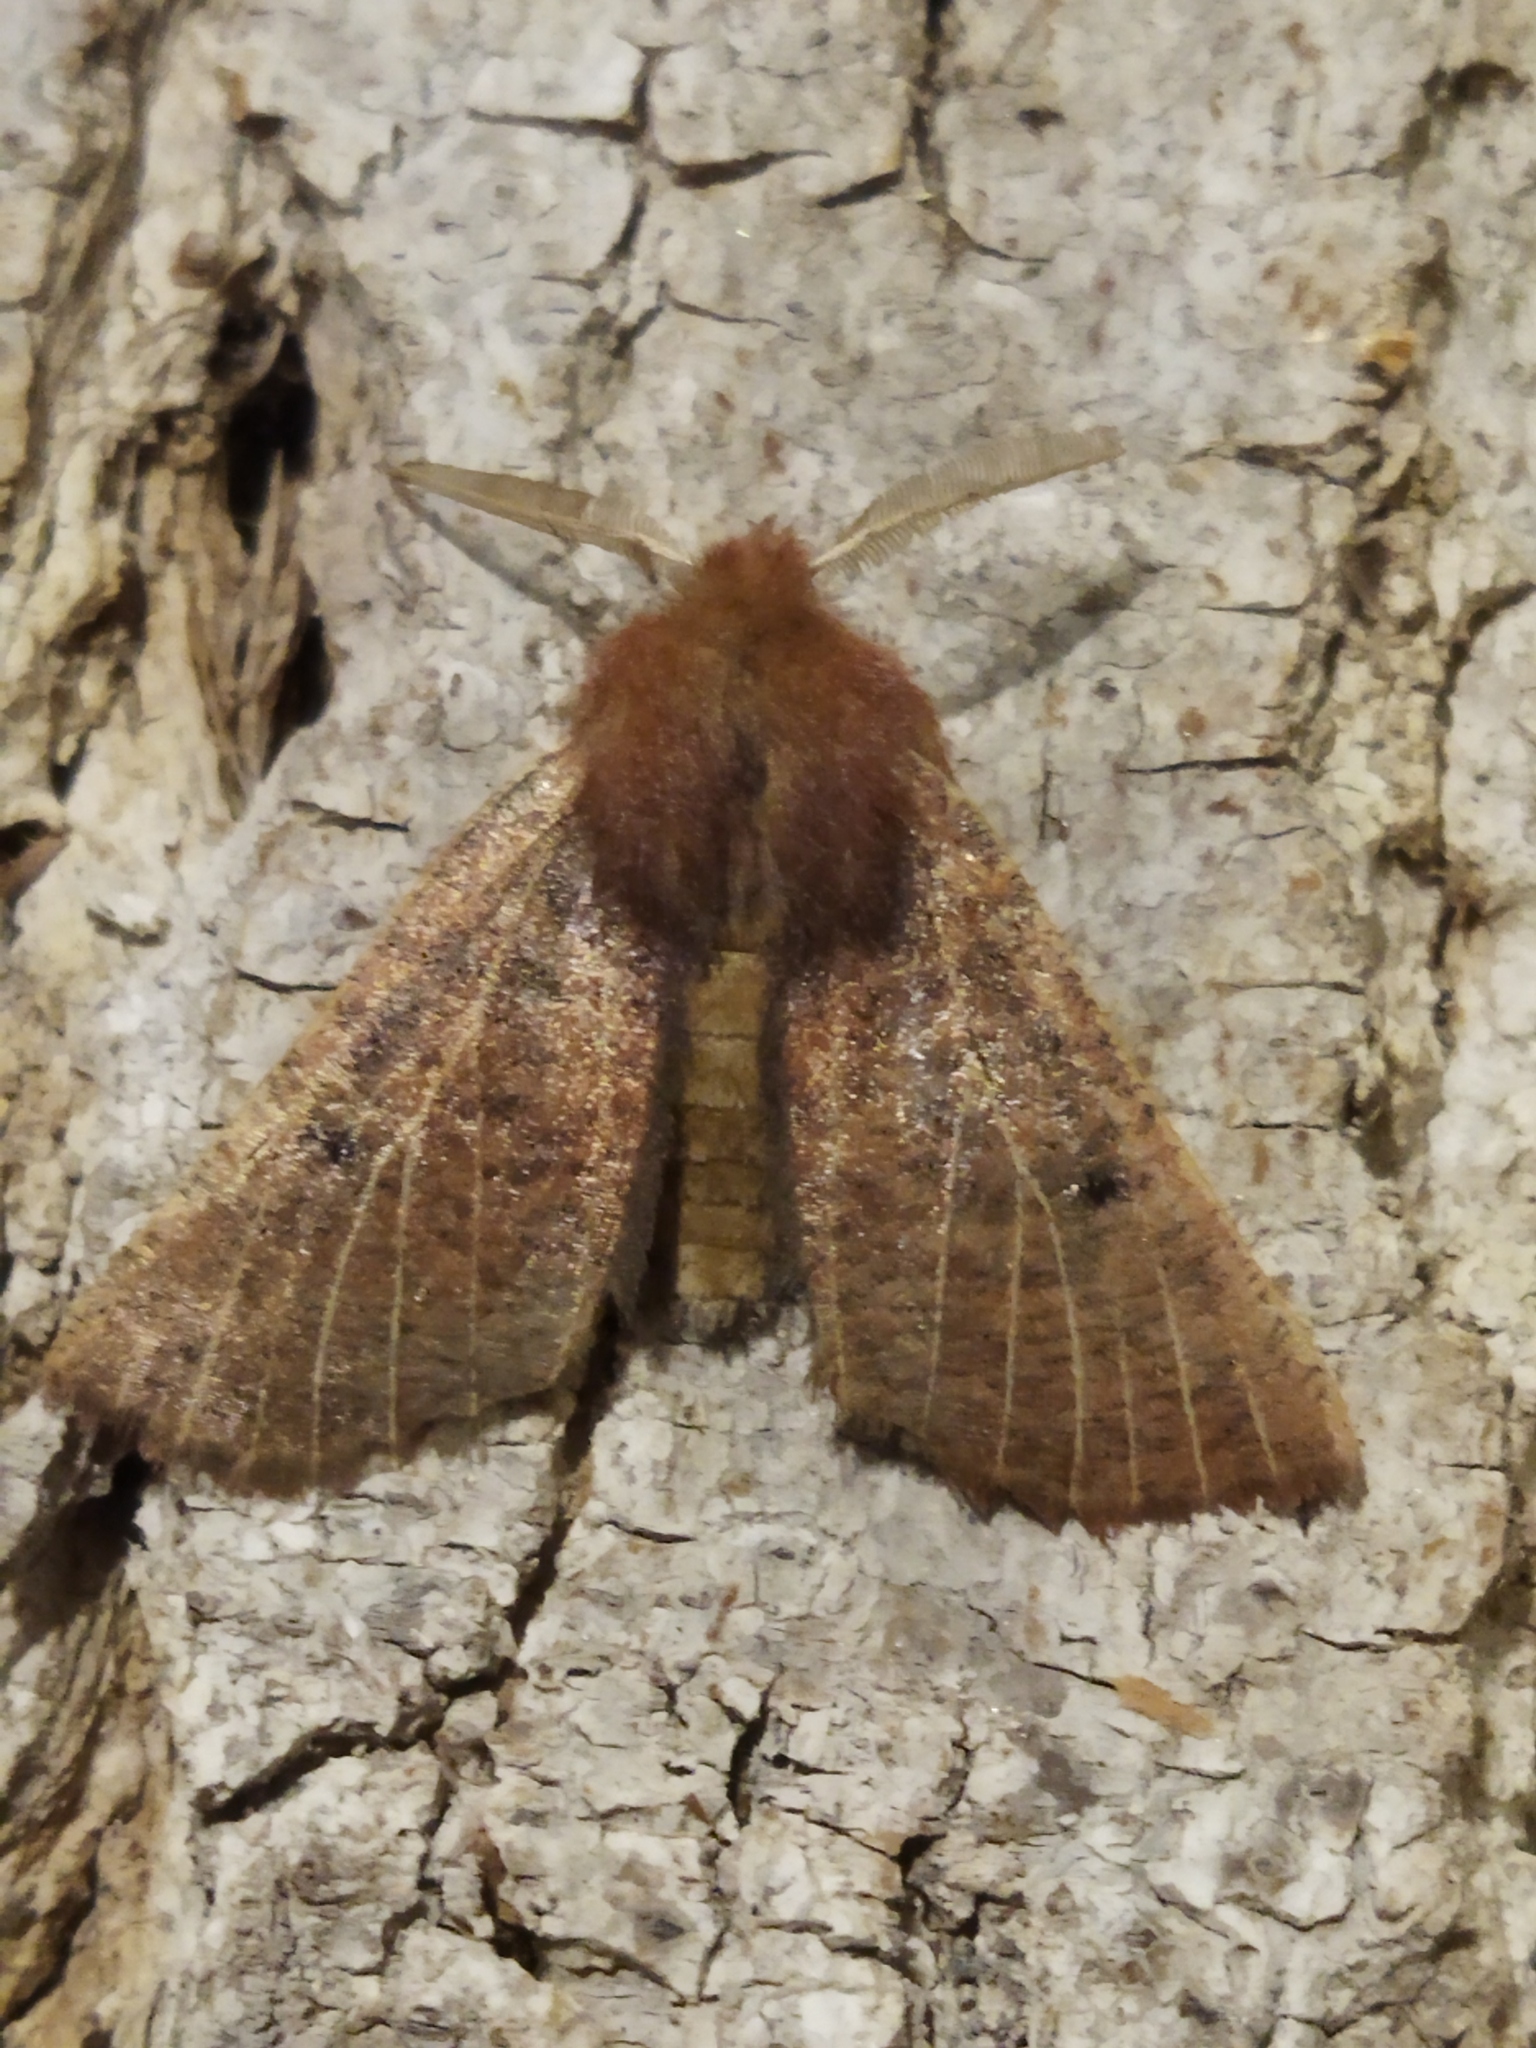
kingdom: Animalia
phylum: Arthropoda
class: Insecta
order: Lepidoptera
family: Geometridae
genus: Dasycorsa
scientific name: Dasycorsa modesta
